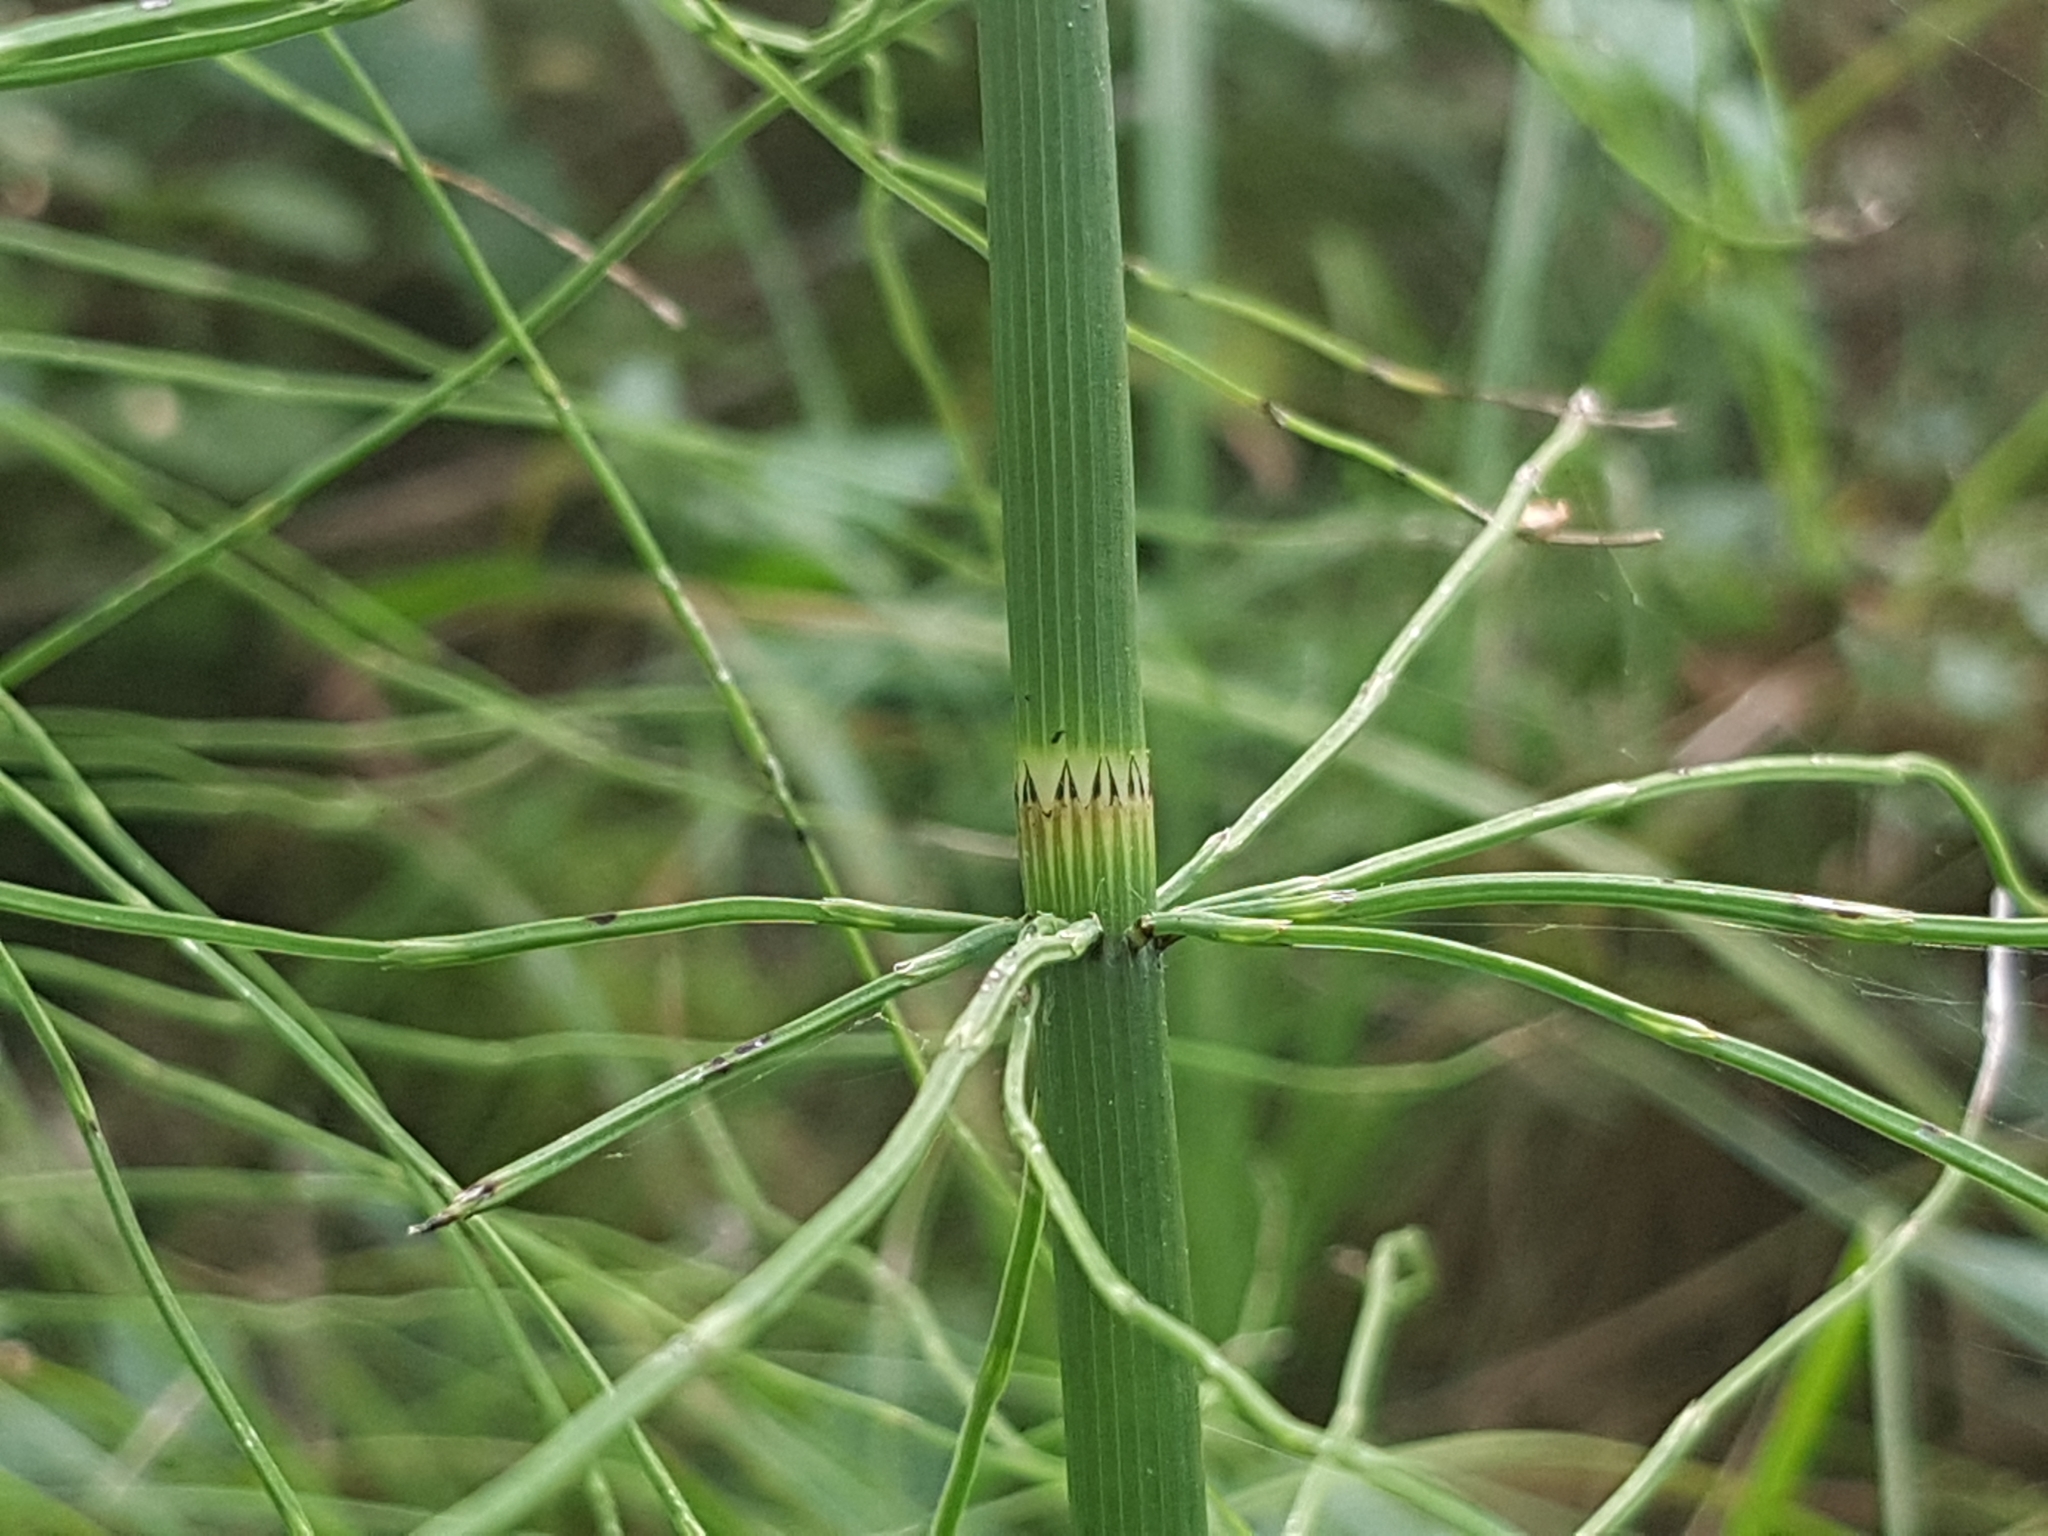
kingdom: Plantae
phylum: Tracheophyta
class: Polypodiopsida
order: Equisetales
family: Equisetaceae
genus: Equisetum
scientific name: Equisetum fluviatile
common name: Water horsetail
